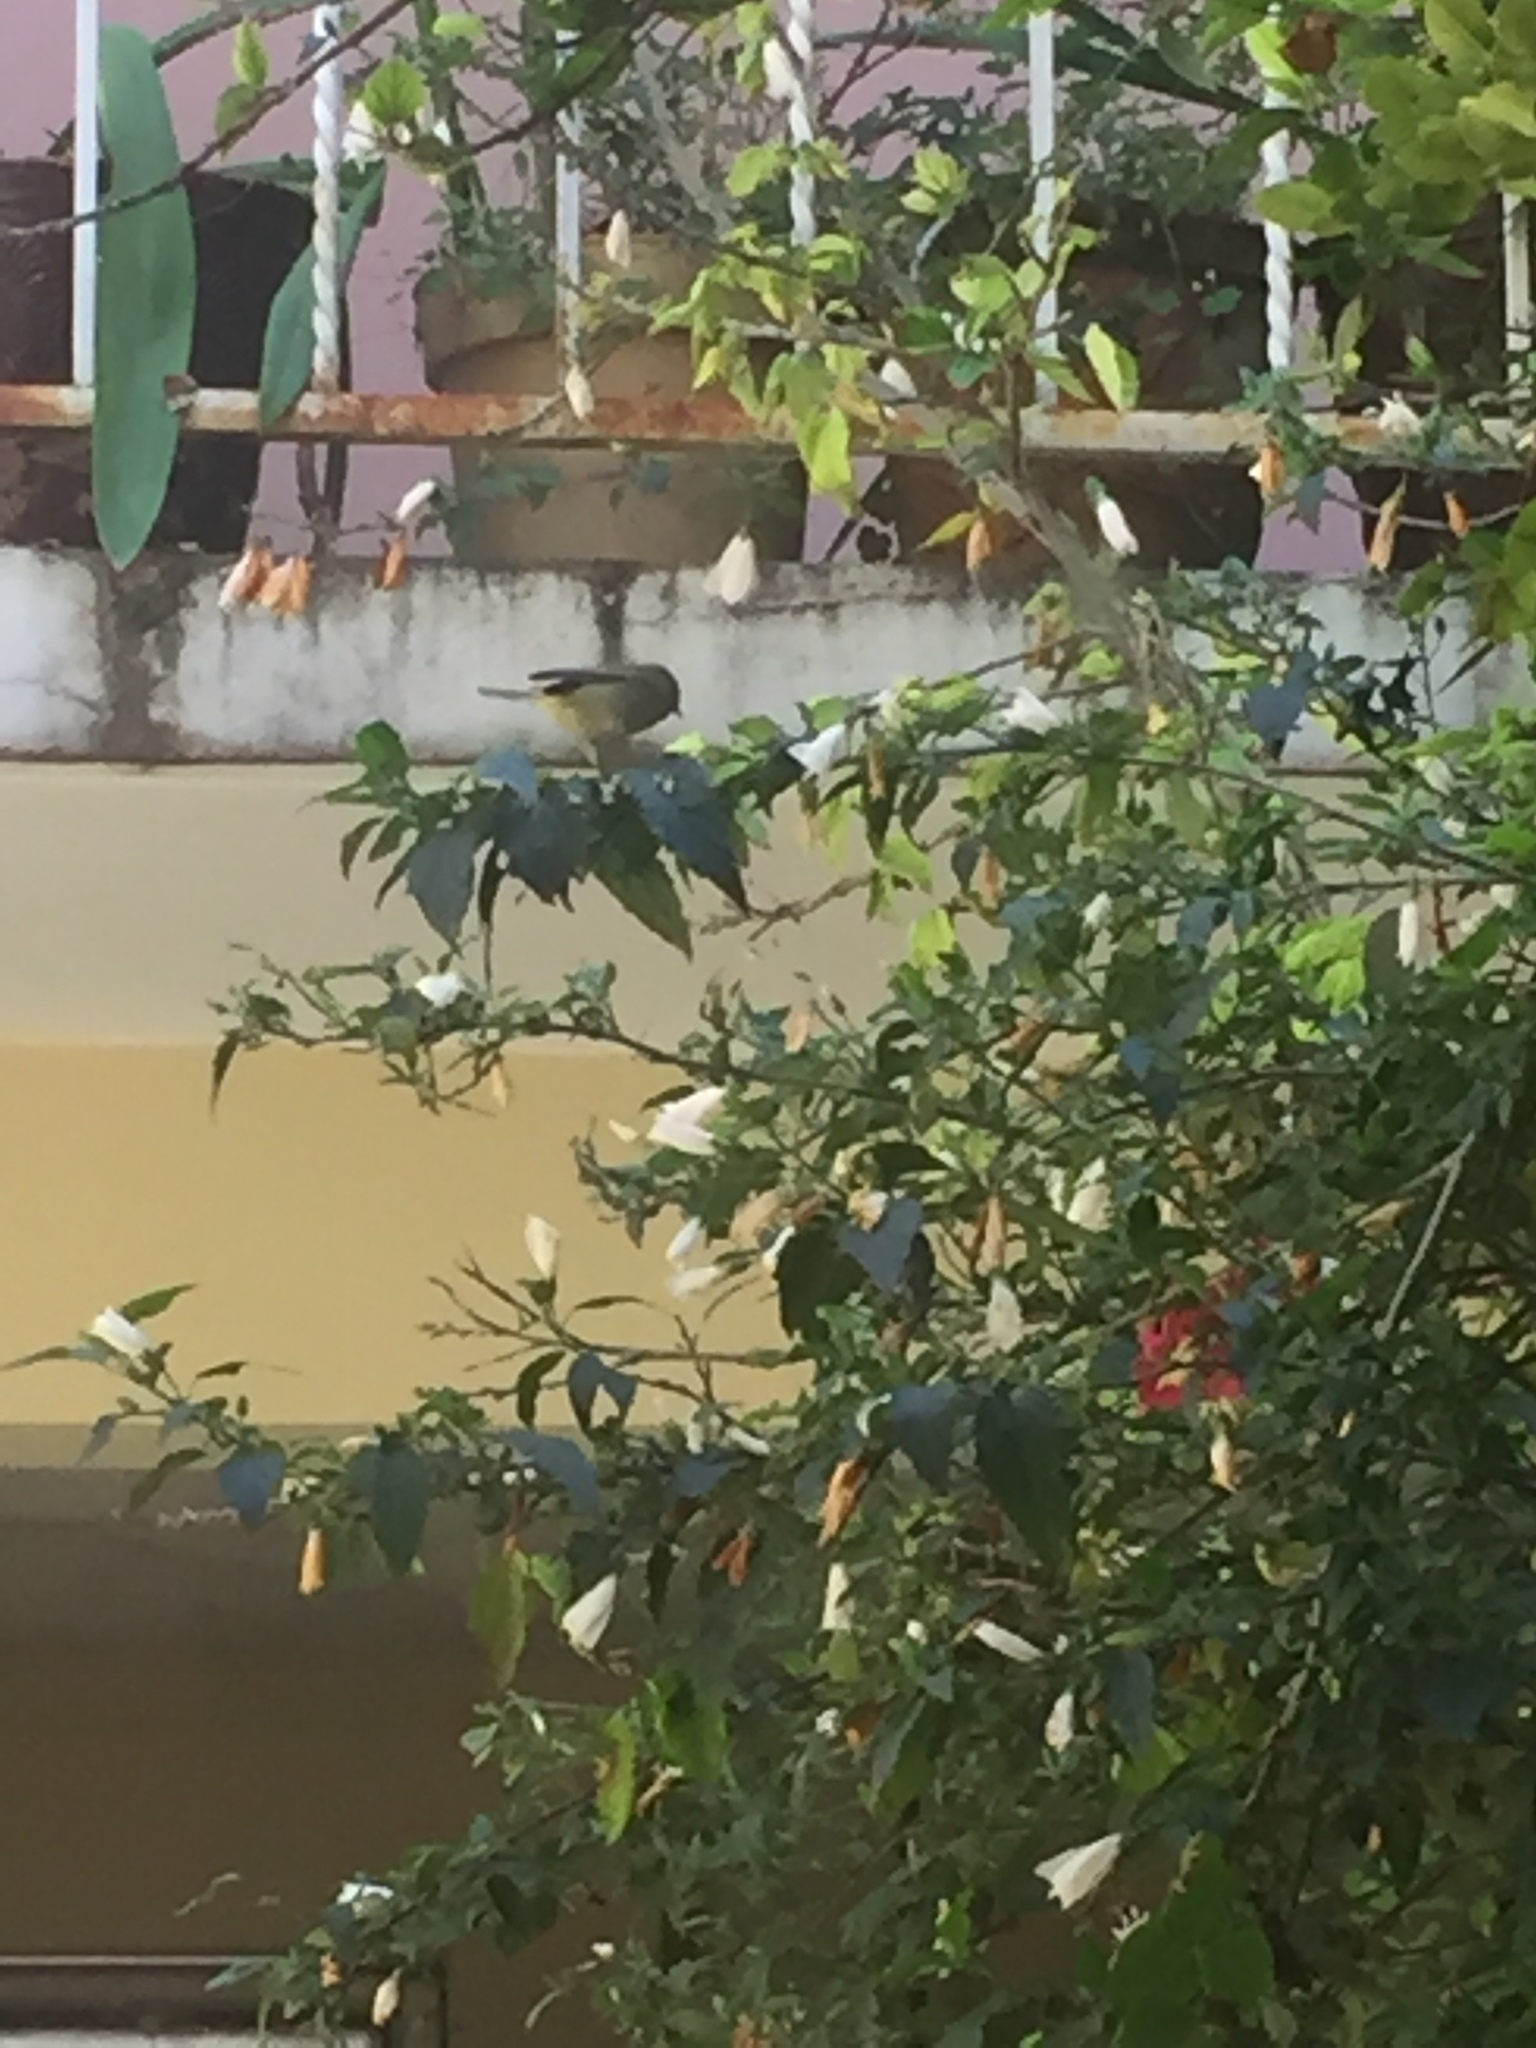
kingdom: Animalia
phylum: Chordata
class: Aves
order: Passeriformes
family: Parulidae
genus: Leiothlypis
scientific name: Leiothlypis celata
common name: Orange-crowned warbler
